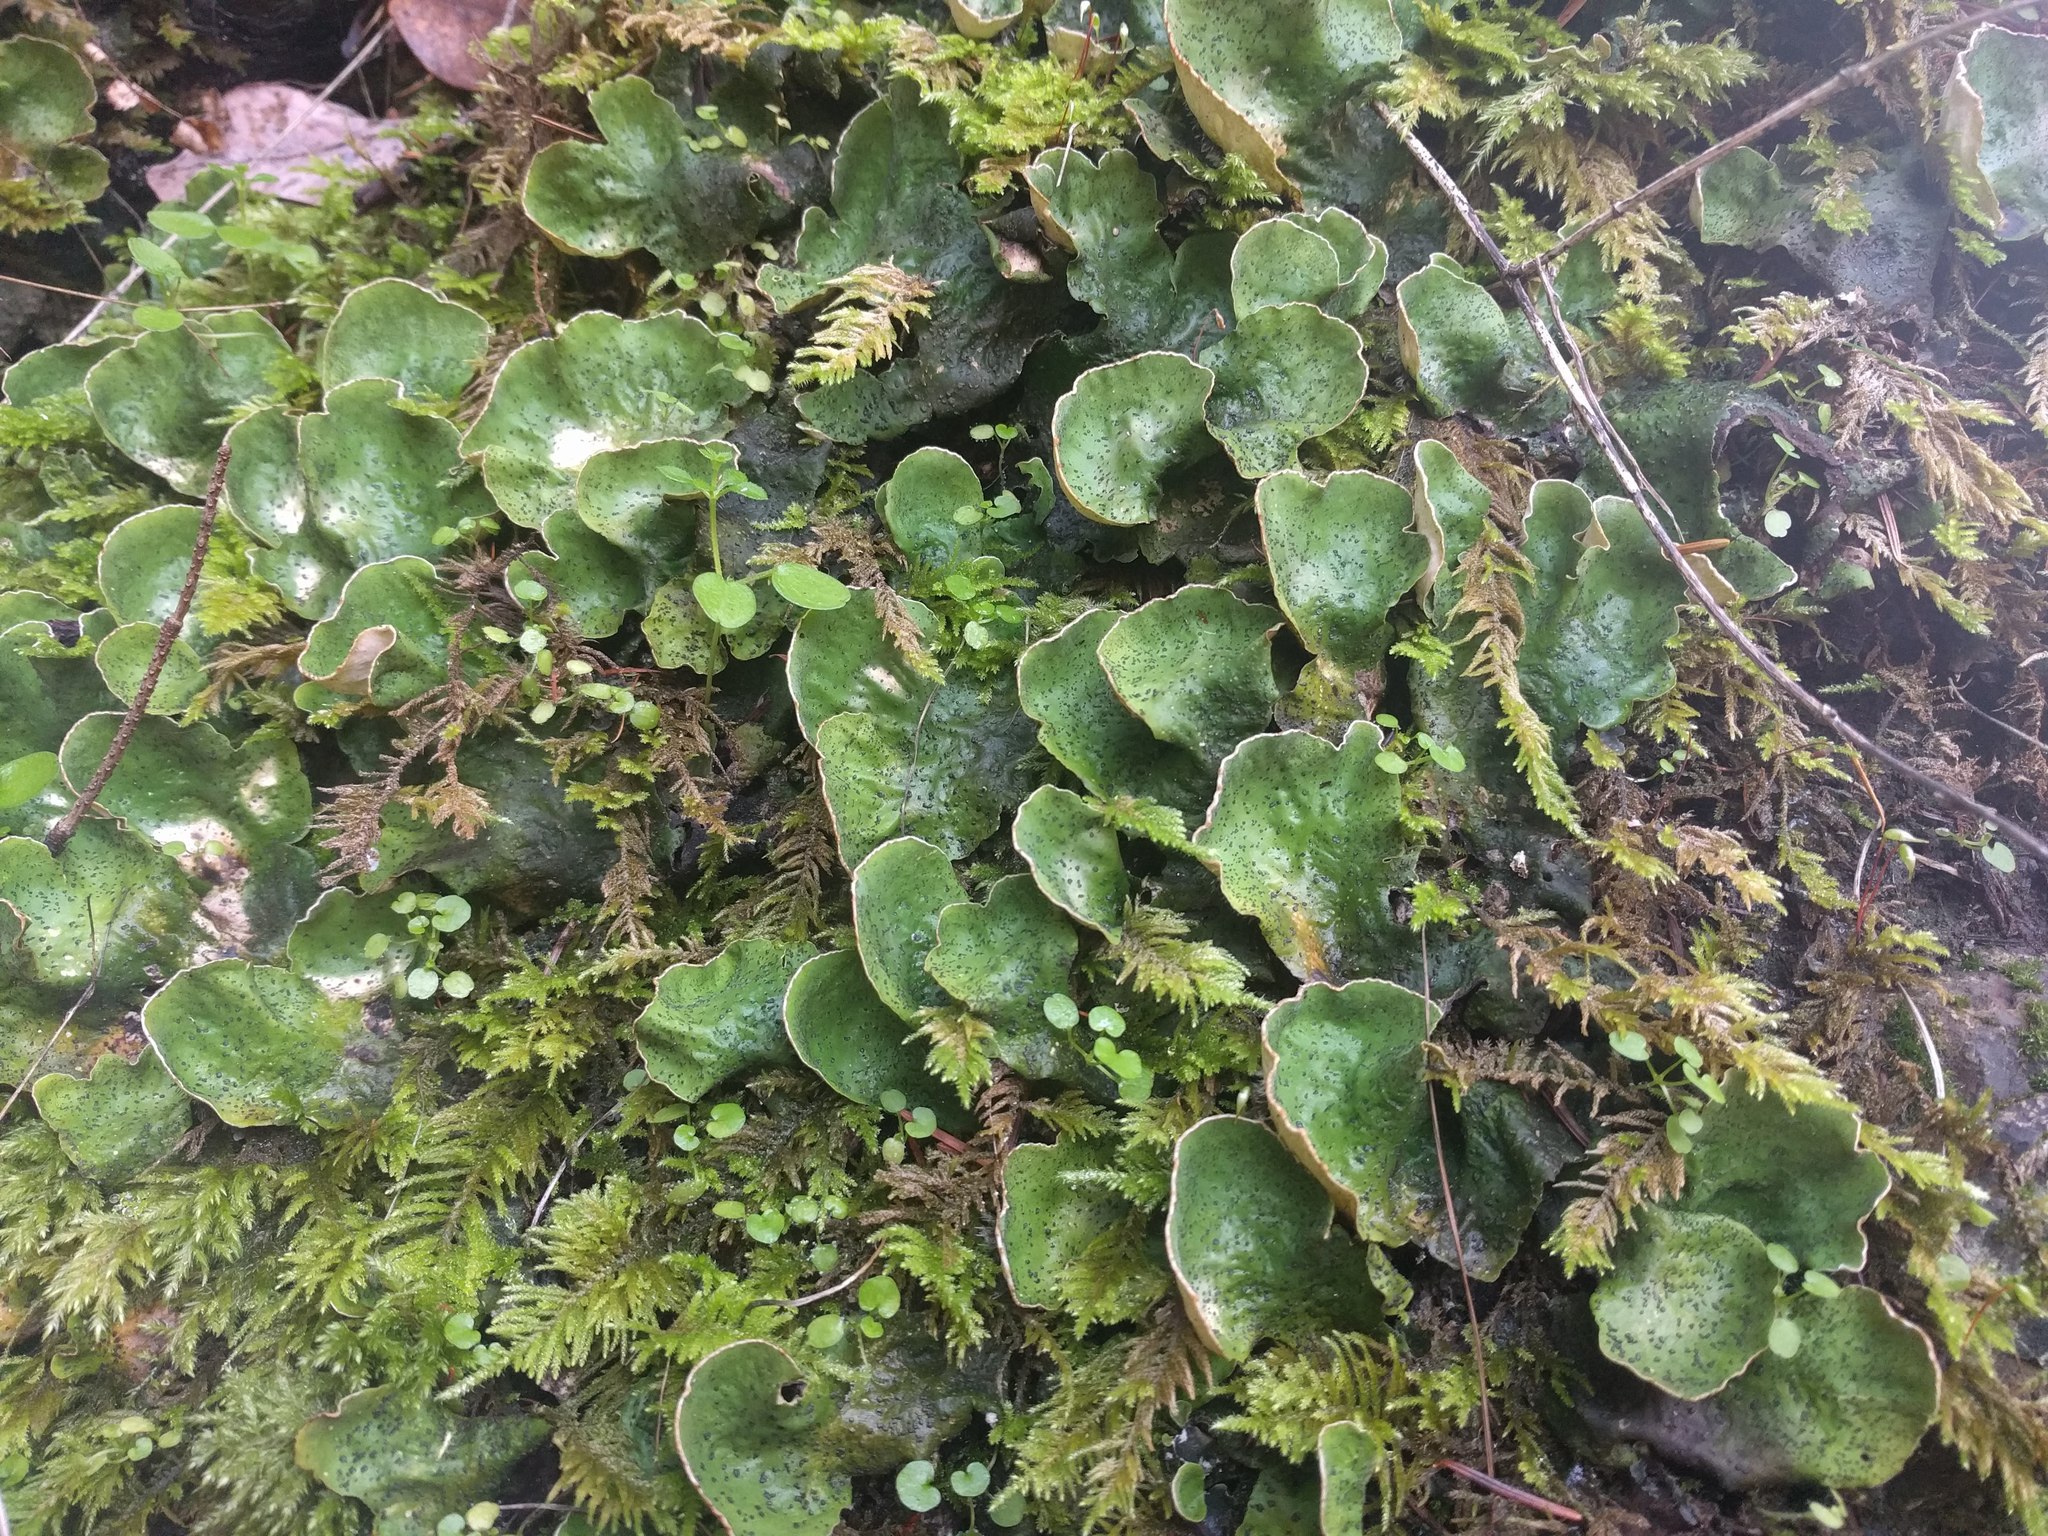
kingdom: Fungi
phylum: Ascomycota
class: Lecanoromycetes
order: Peltigerales
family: Peltigeraceae
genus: Peltigera
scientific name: Peltigera britannica
